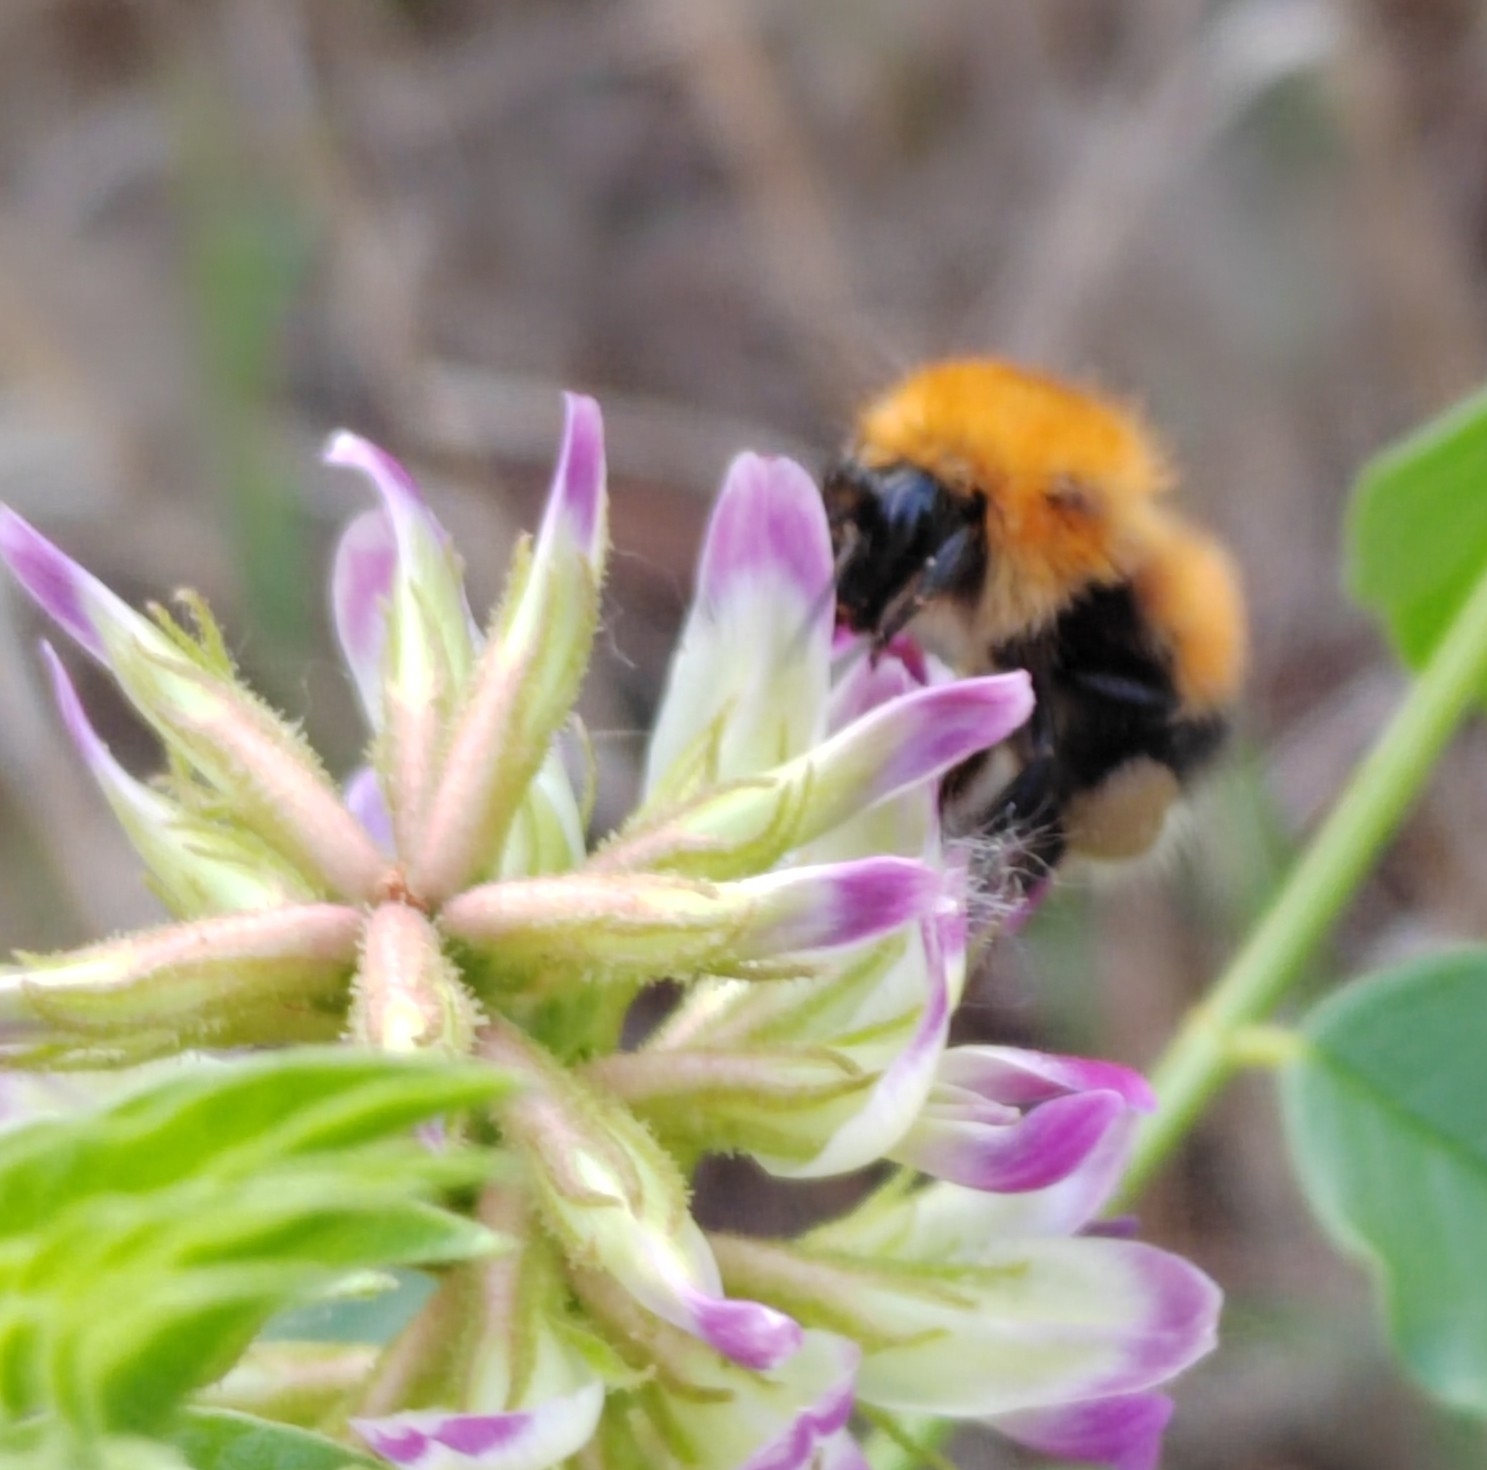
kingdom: Animalia
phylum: Arthropoda
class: Insecta
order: Hymenoptera
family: Apidae
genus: Bombus
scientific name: Bombus hypnorum
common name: New garden bumblebee
